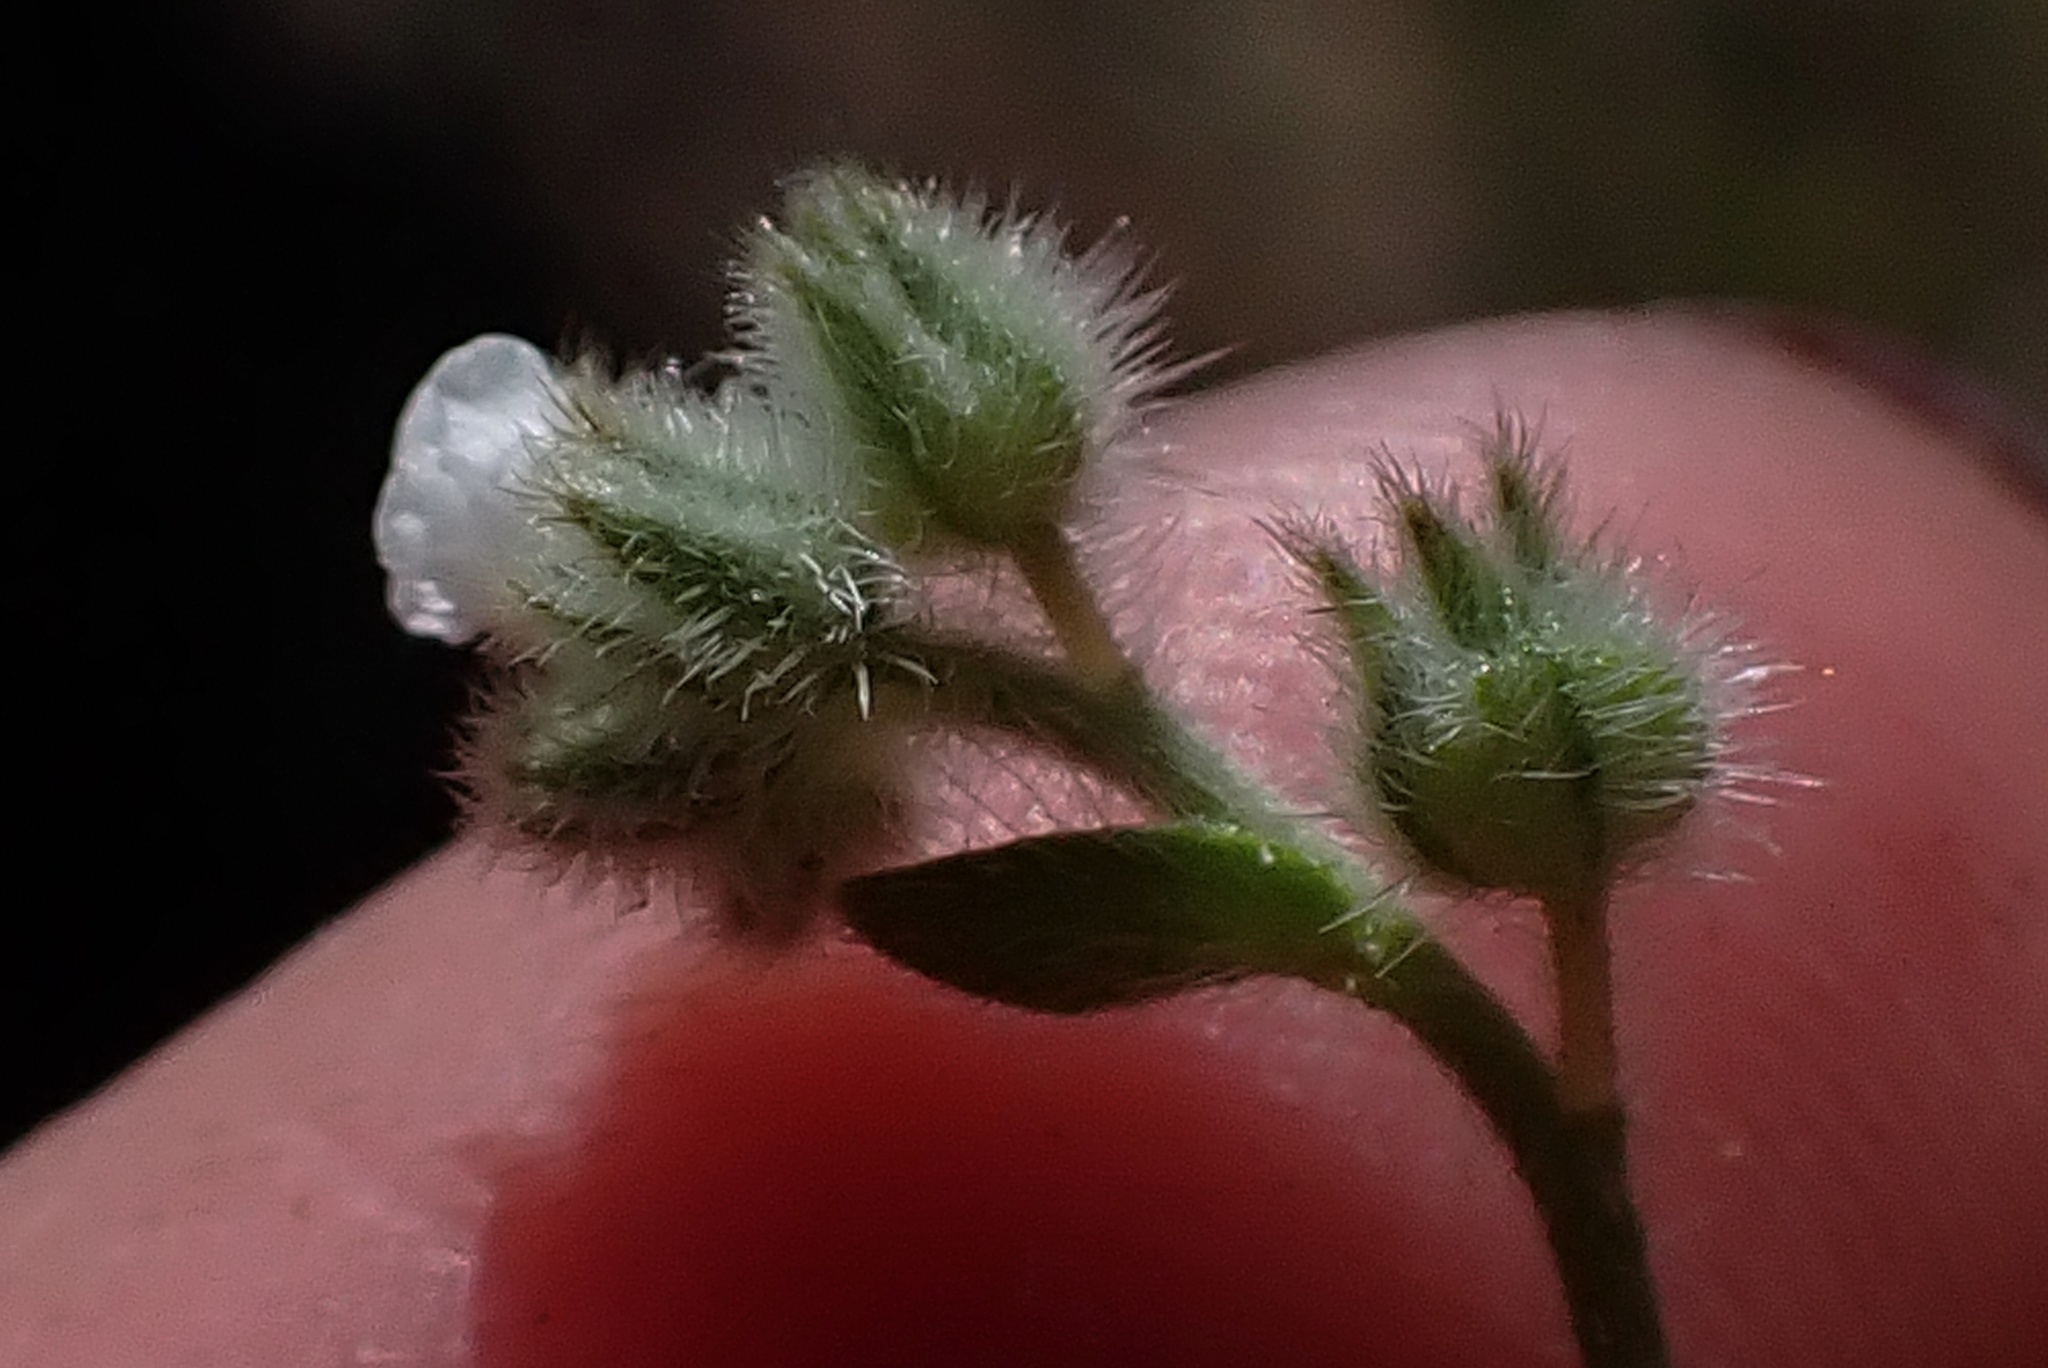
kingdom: Plantae
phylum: Tracheophyta
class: Magnoliopsida
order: Boraginales
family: Boraginaceae
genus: Plagiobothrys
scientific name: Plagiobothrys tenellus
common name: Pacific popcornflower
